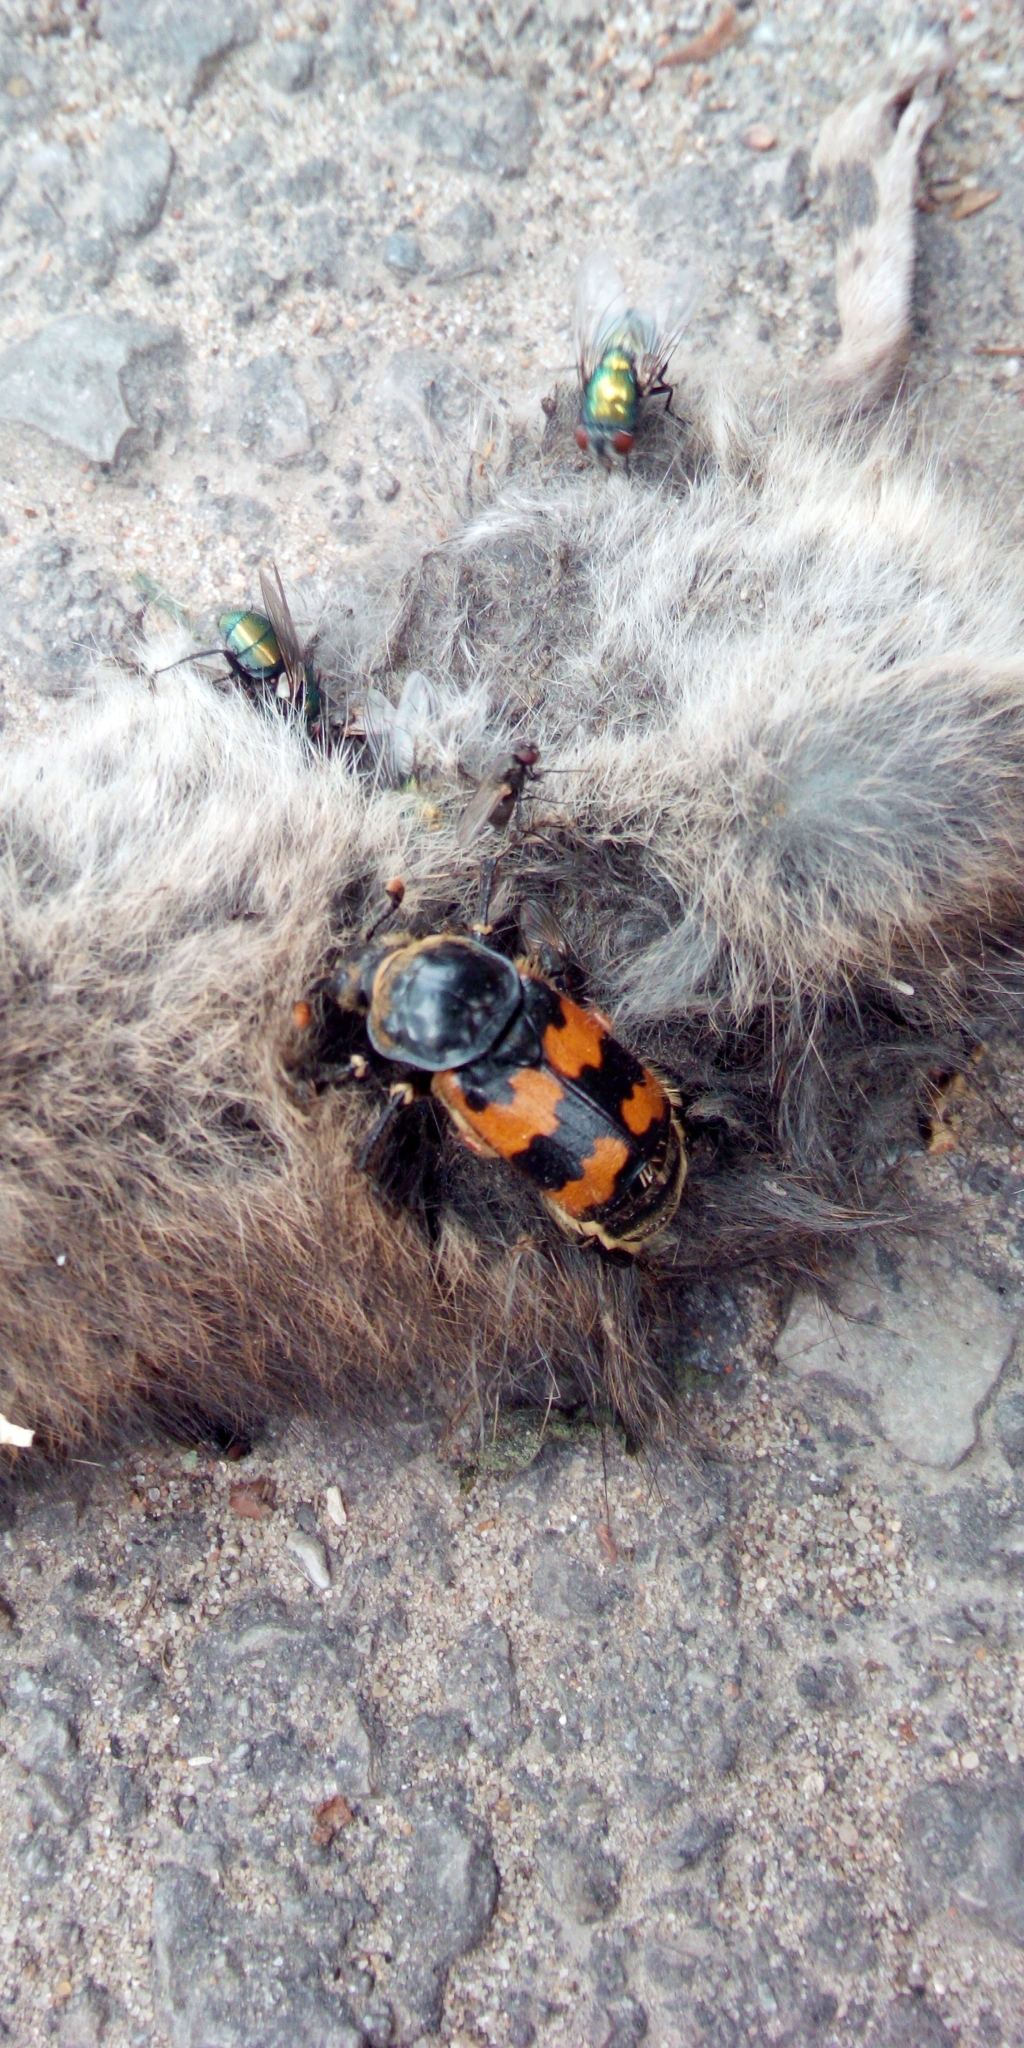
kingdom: Animalia
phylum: Arthropoda
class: Insecta
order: Coleoptera
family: Staphylinidae
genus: Nicrophorus
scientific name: Nicrophorus vespillo
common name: Common burying beetle
